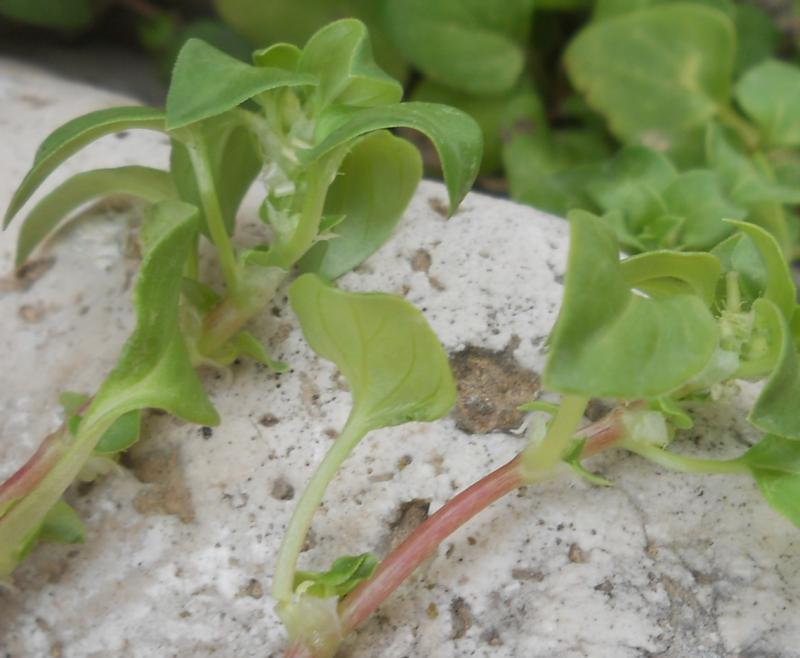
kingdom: Plantae
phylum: Tracheophyta
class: Magnoliopsida
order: Gentianales
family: Rubiaceae
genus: Theligonum
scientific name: Theligonum cynocrambe
